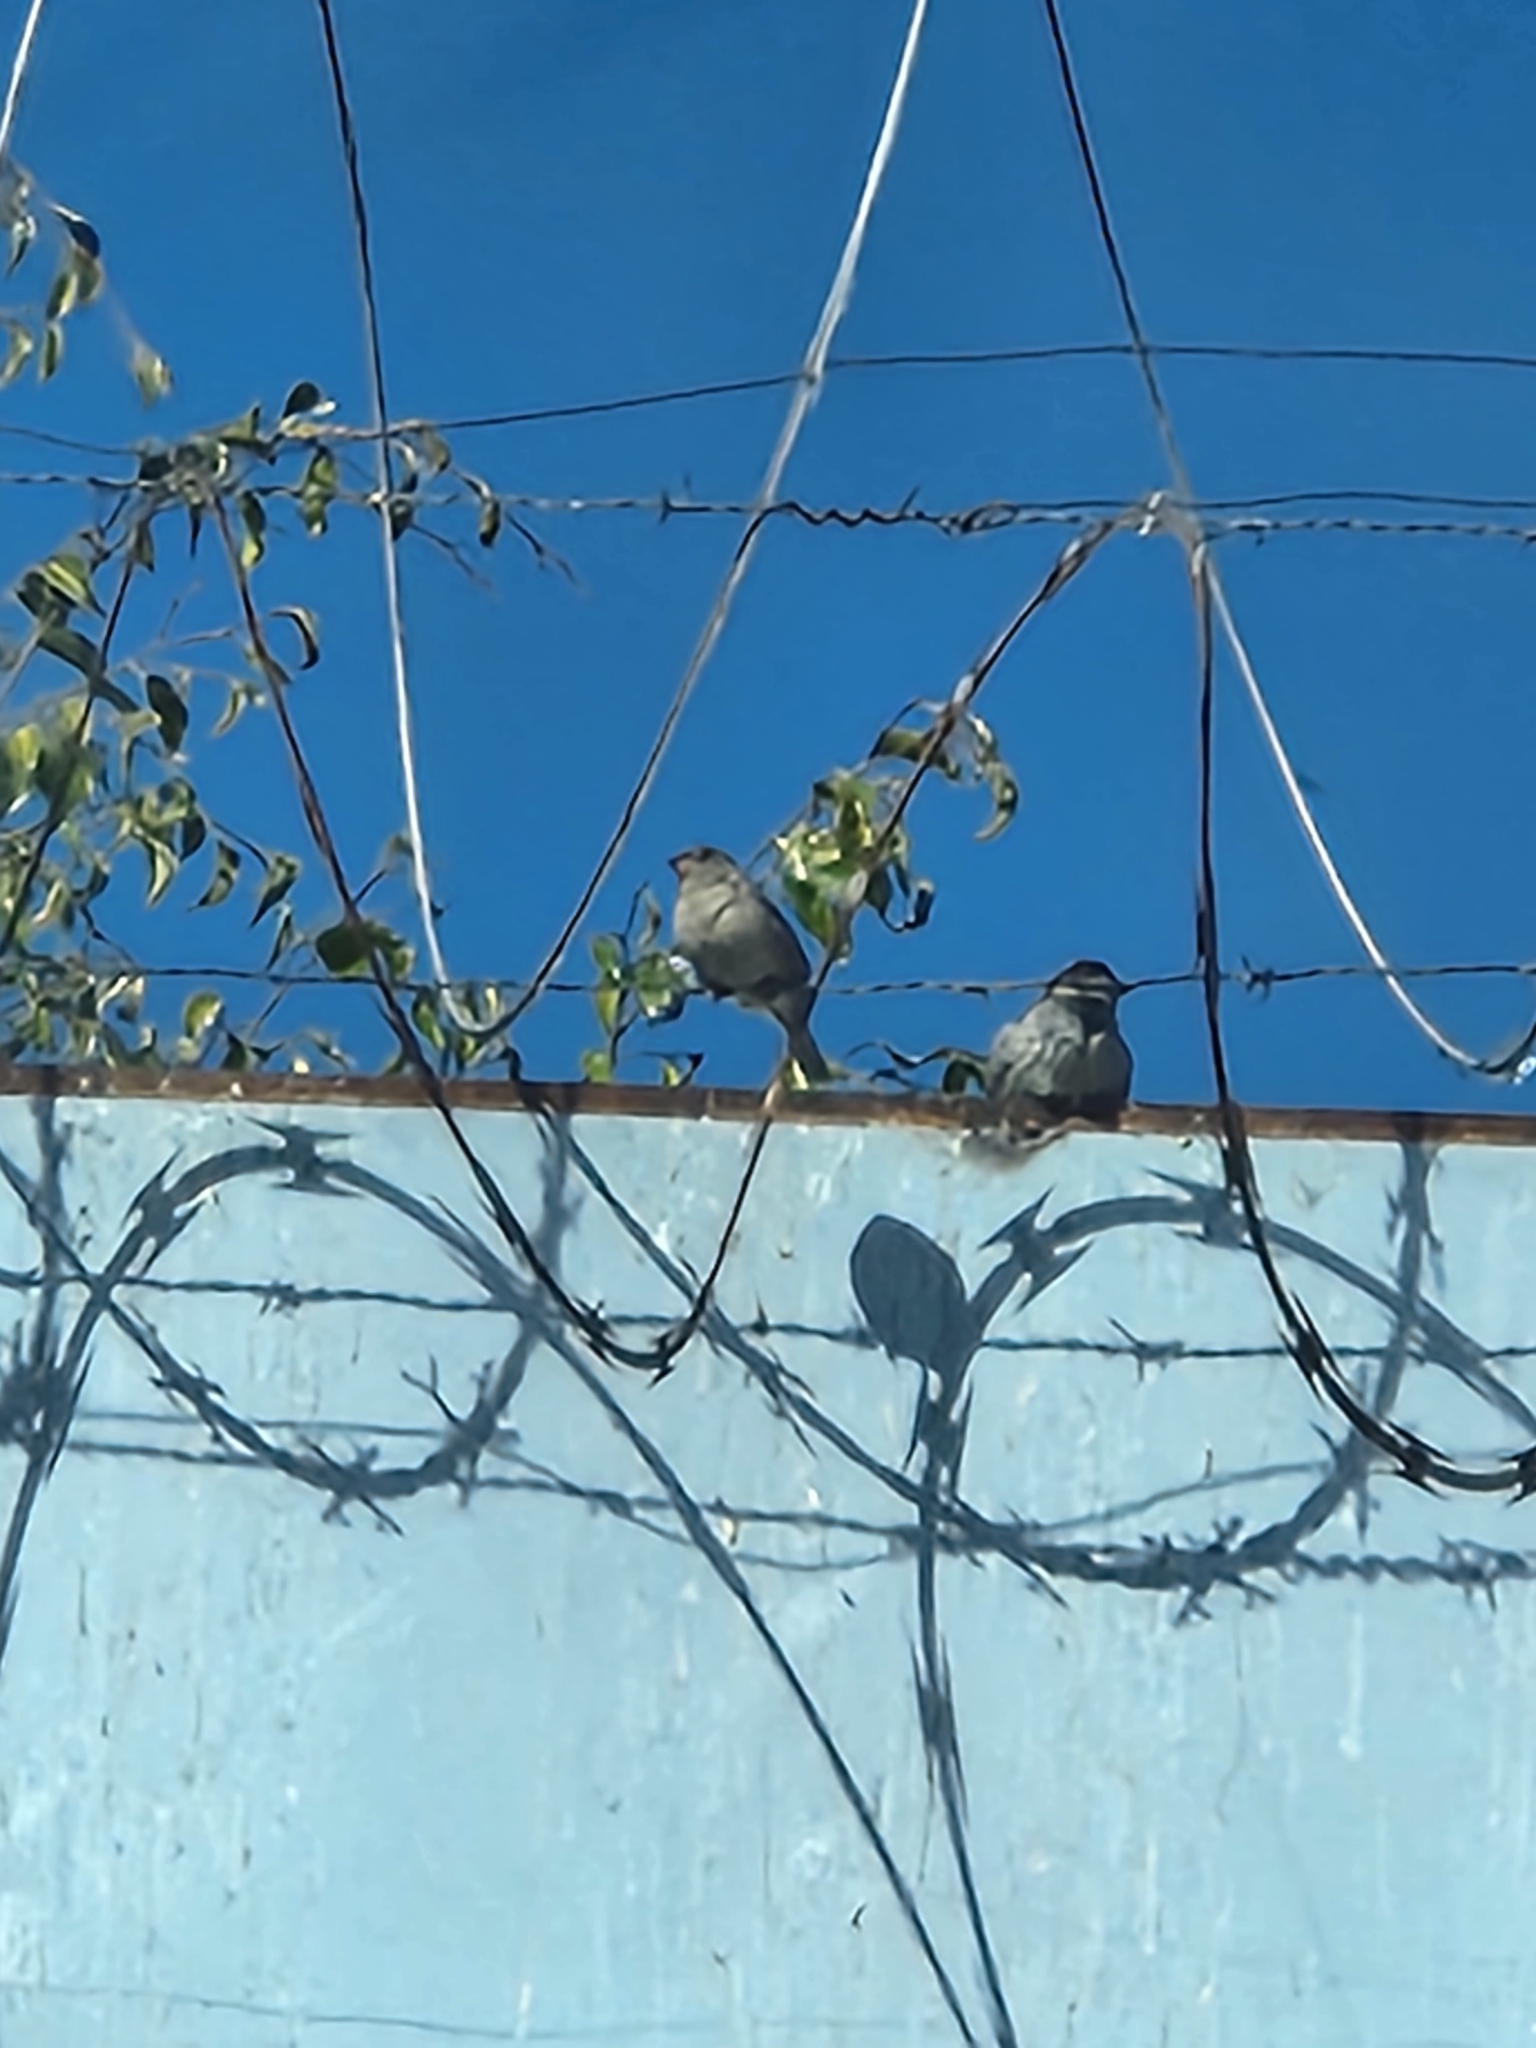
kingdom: Animalia
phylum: Chordata
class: Aves
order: Passeriformes
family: Passeridae
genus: Passer
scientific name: Passer domesticus
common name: House sparrow
